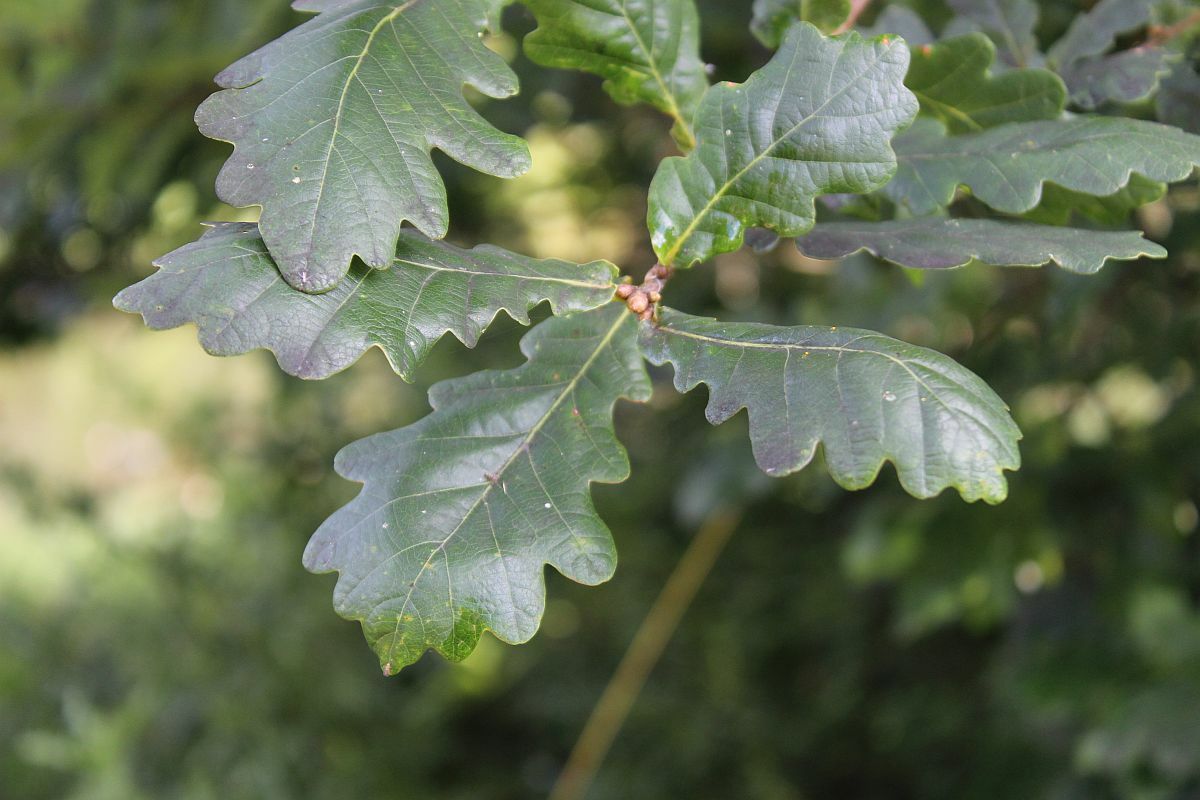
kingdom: Plantae
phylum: Tracheophyta
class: Magnoliopsida
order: Fagales
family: Fagaceae
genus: Quercus
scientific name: Quercus robur
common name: Pedunculate oak
